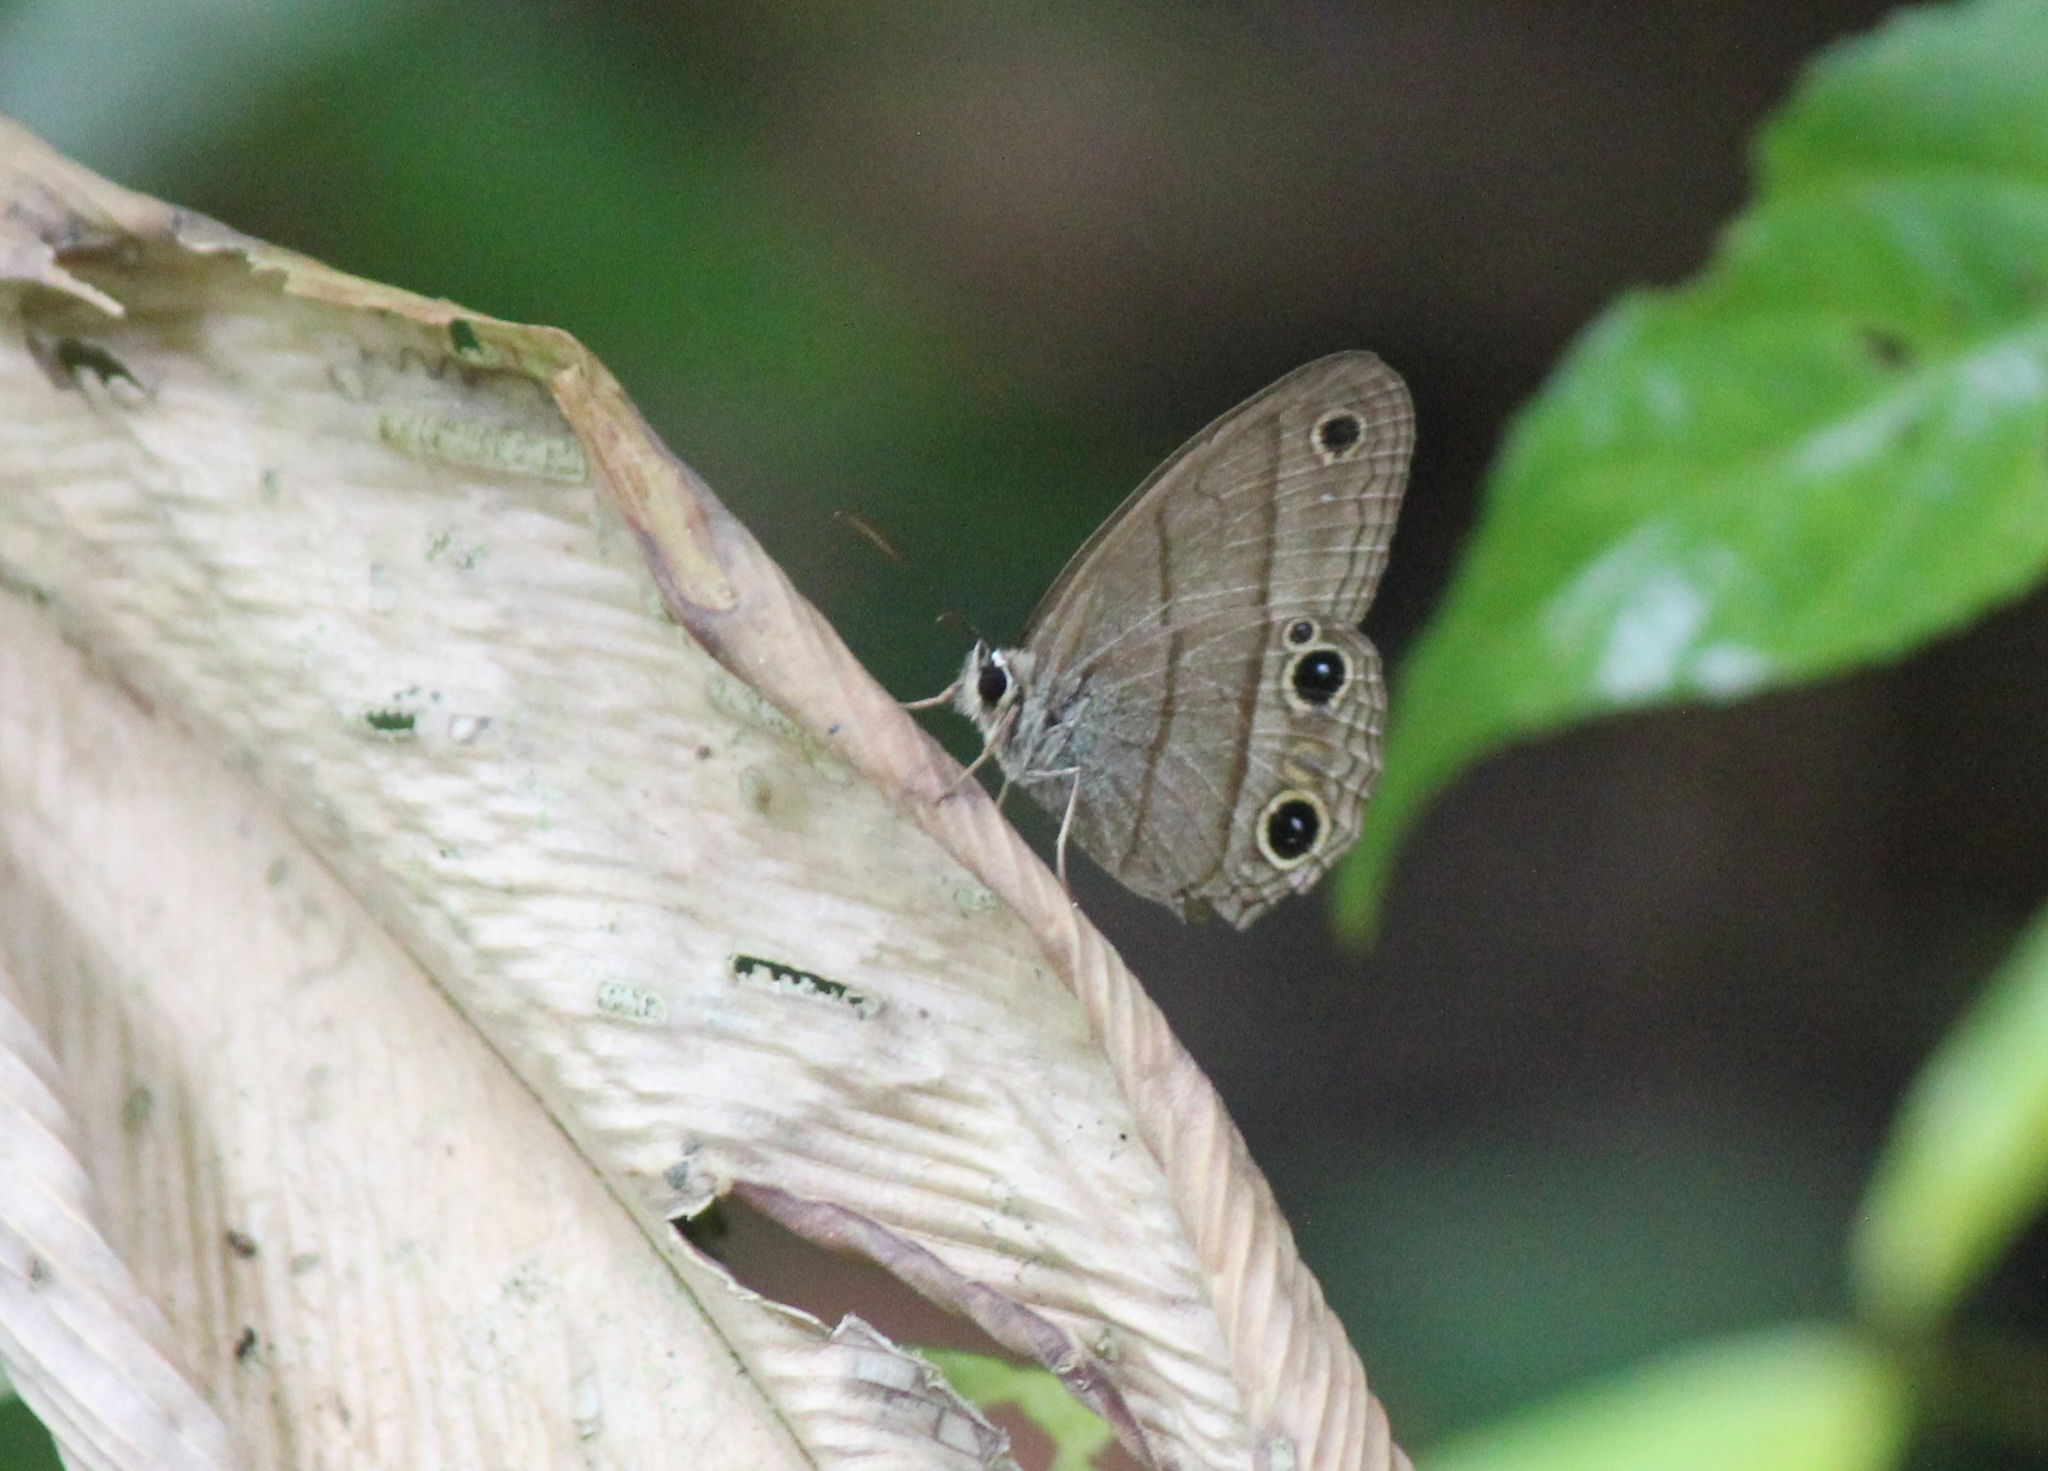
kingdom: Animalia
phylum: Arthropoda
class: Insecta
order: Lepidoptera
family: Nymphalidae
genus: Euptychia
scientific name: Euptychia Cissia pompilia
